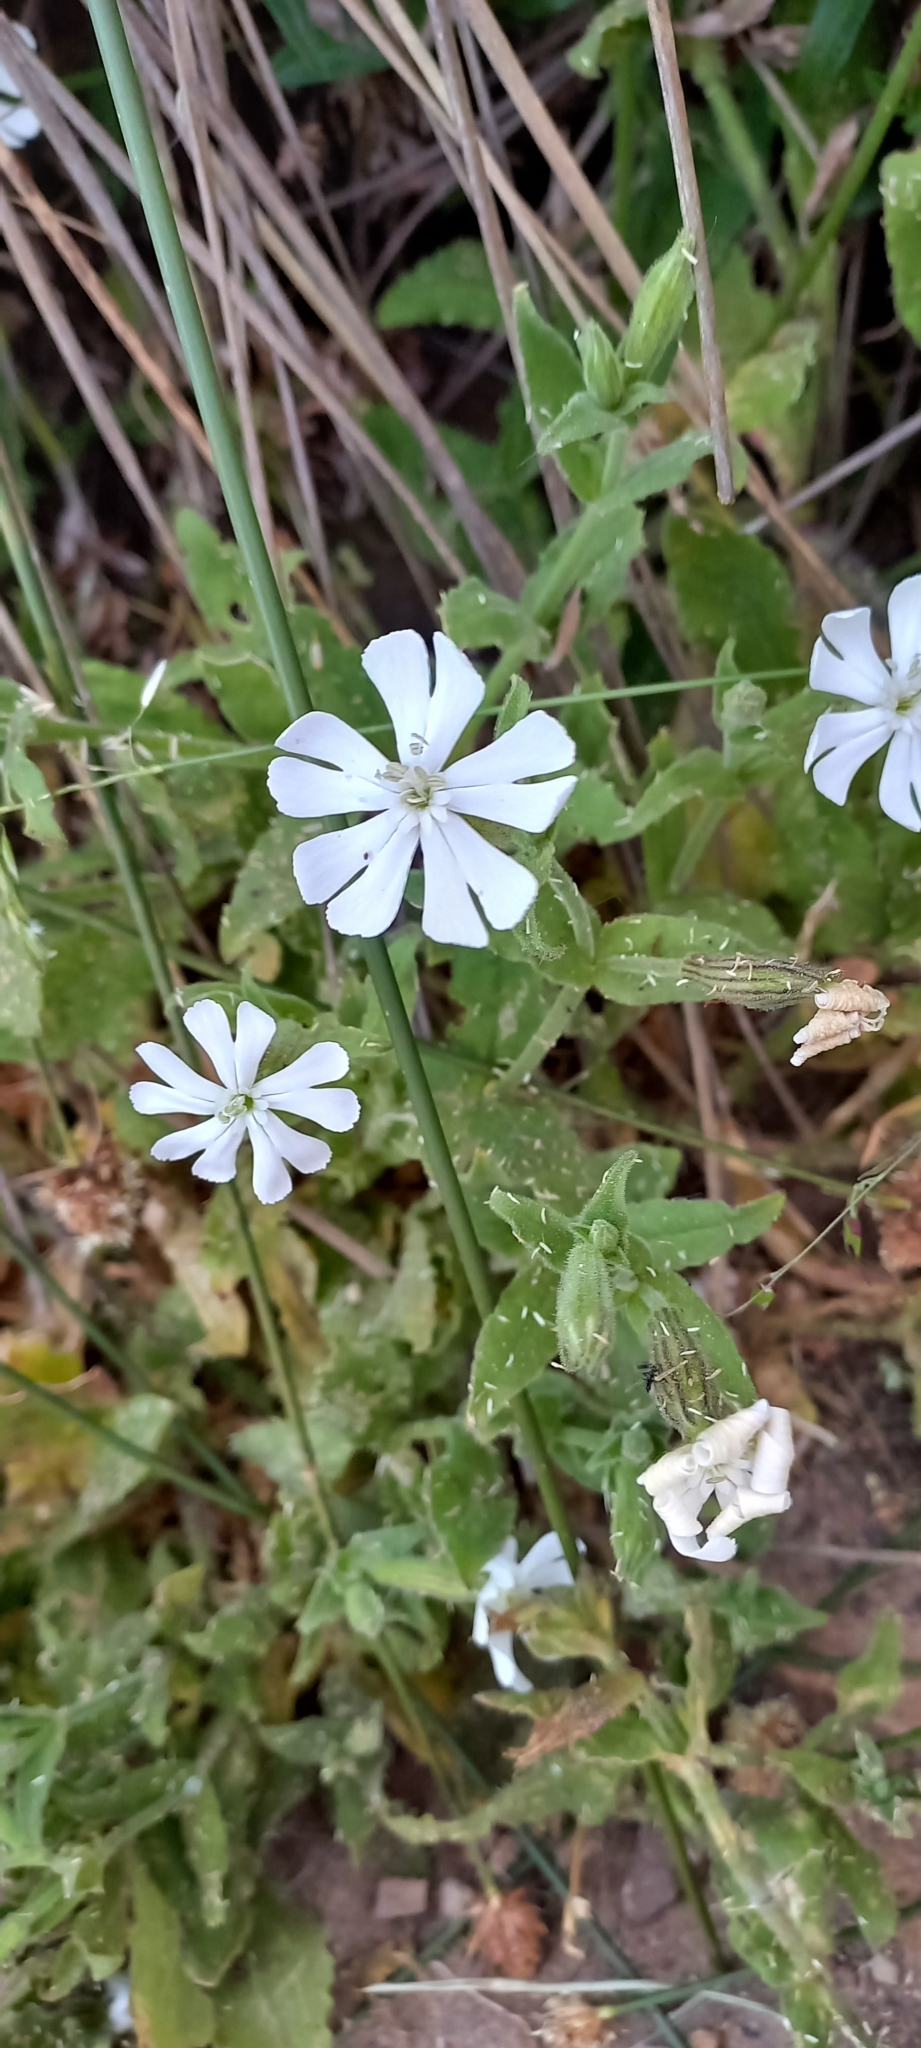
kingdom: Plantae
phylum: Tracheophyta
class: Magnoliopsida
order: Caryophyllales
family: Caryophyllaceae
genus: Silene
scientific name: Silene undulata
